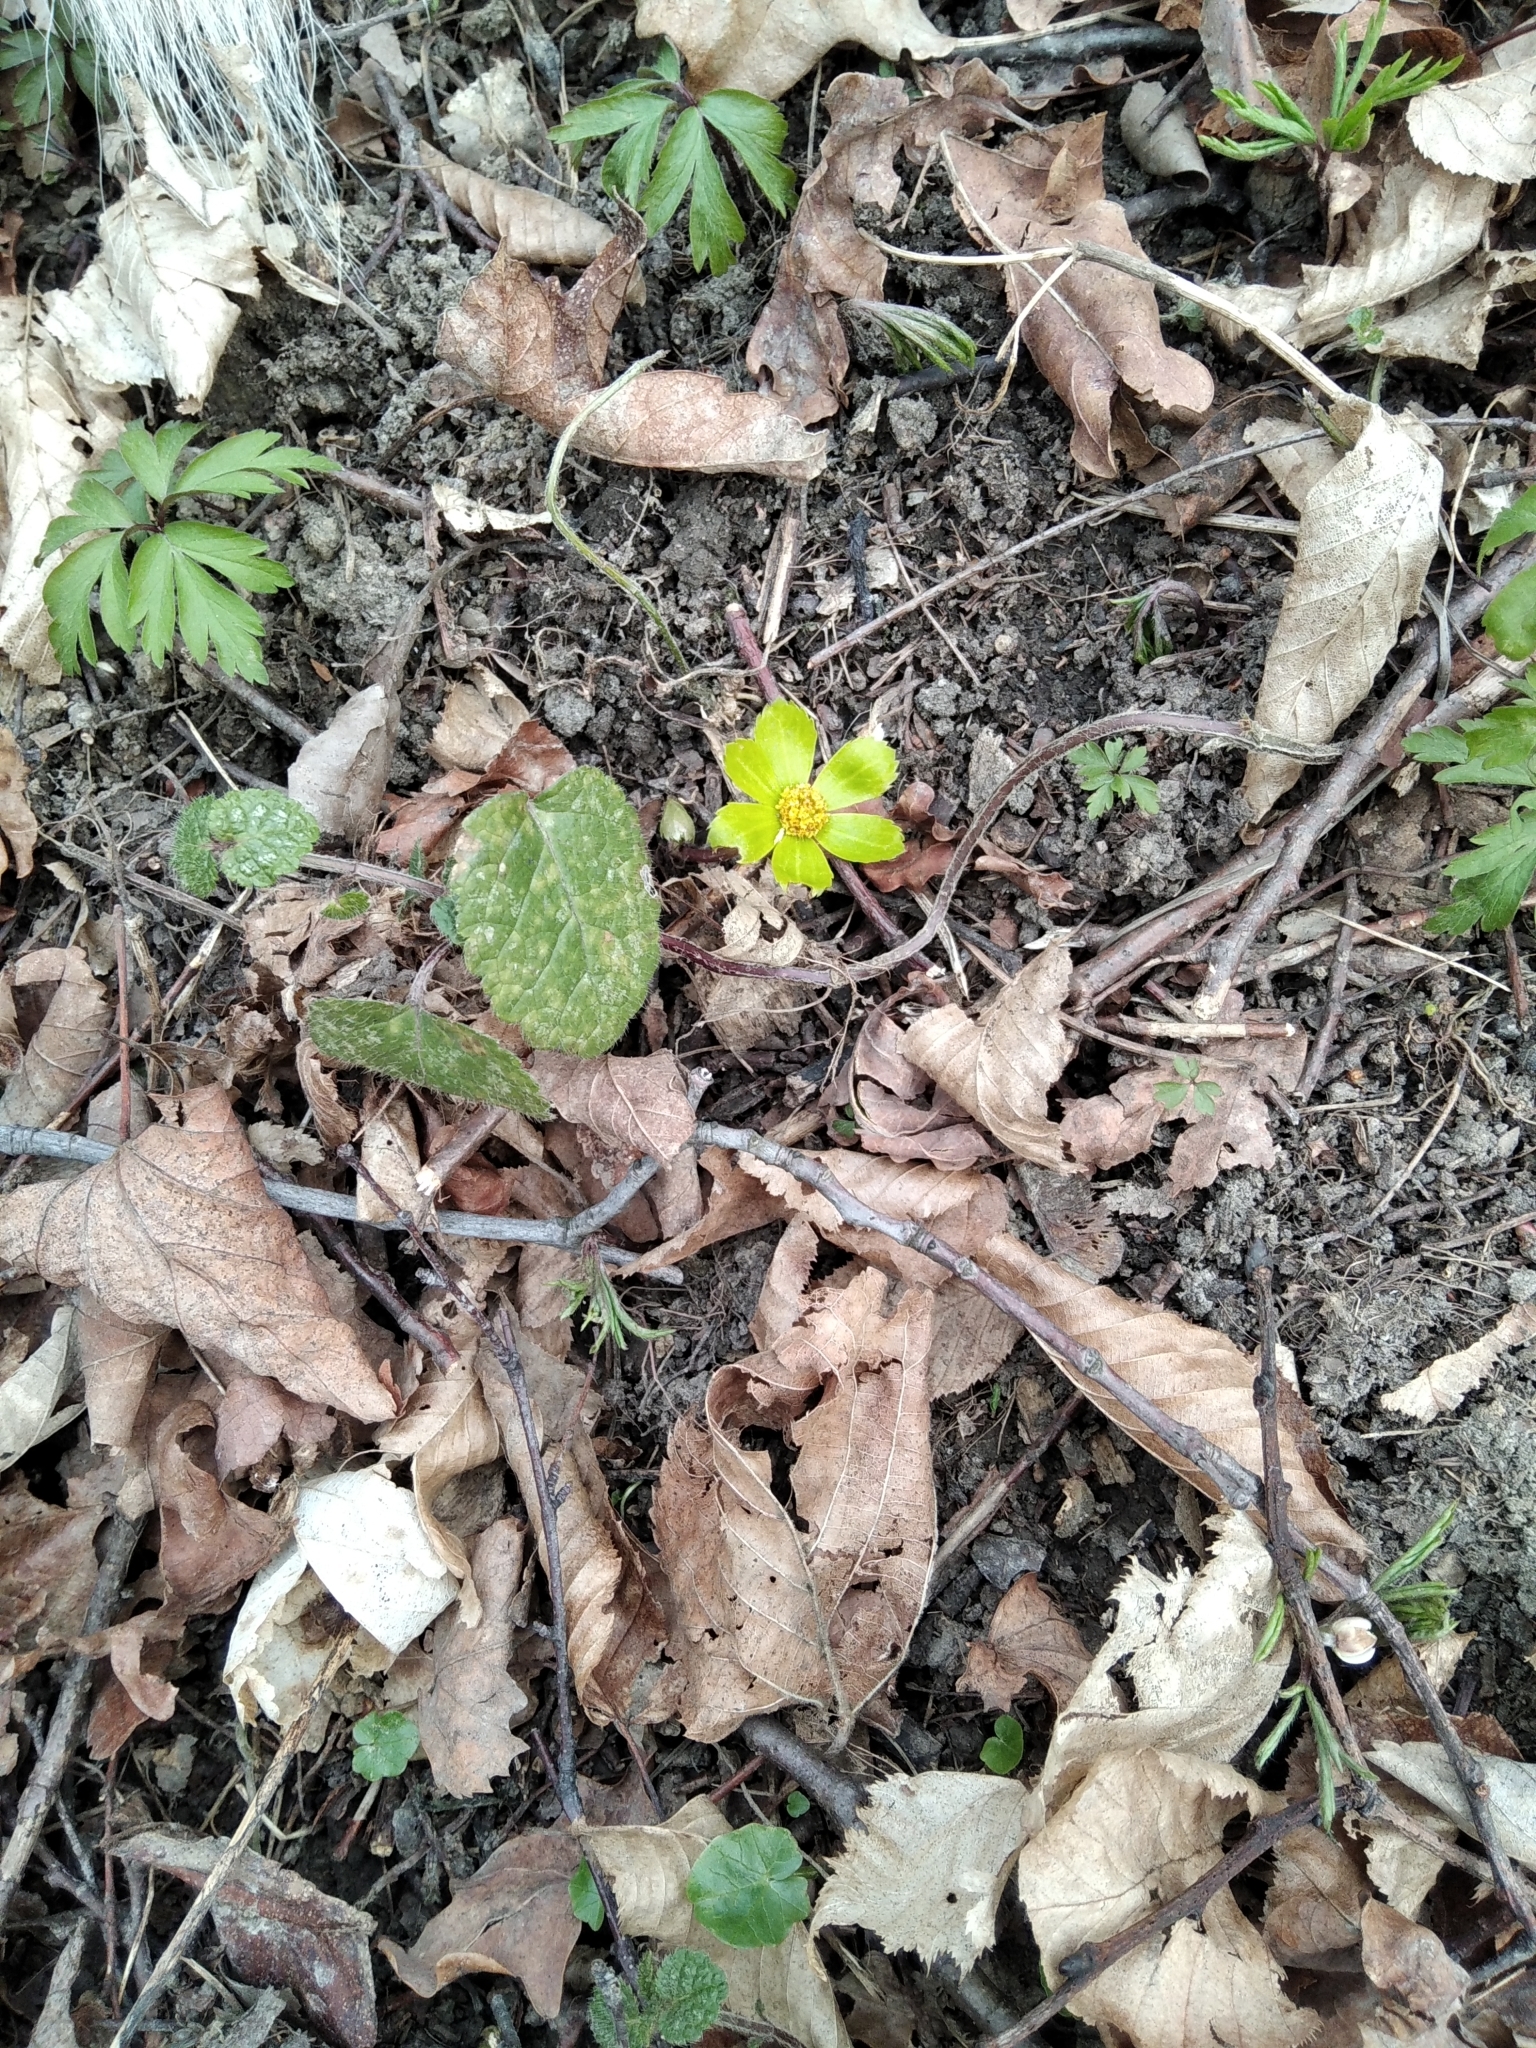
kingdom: Plantae
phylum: Tracheophyta
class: Magnoliopsida
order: Apiales
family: Apiaceae
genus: Sanicula
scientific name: Sanicula epipactis
